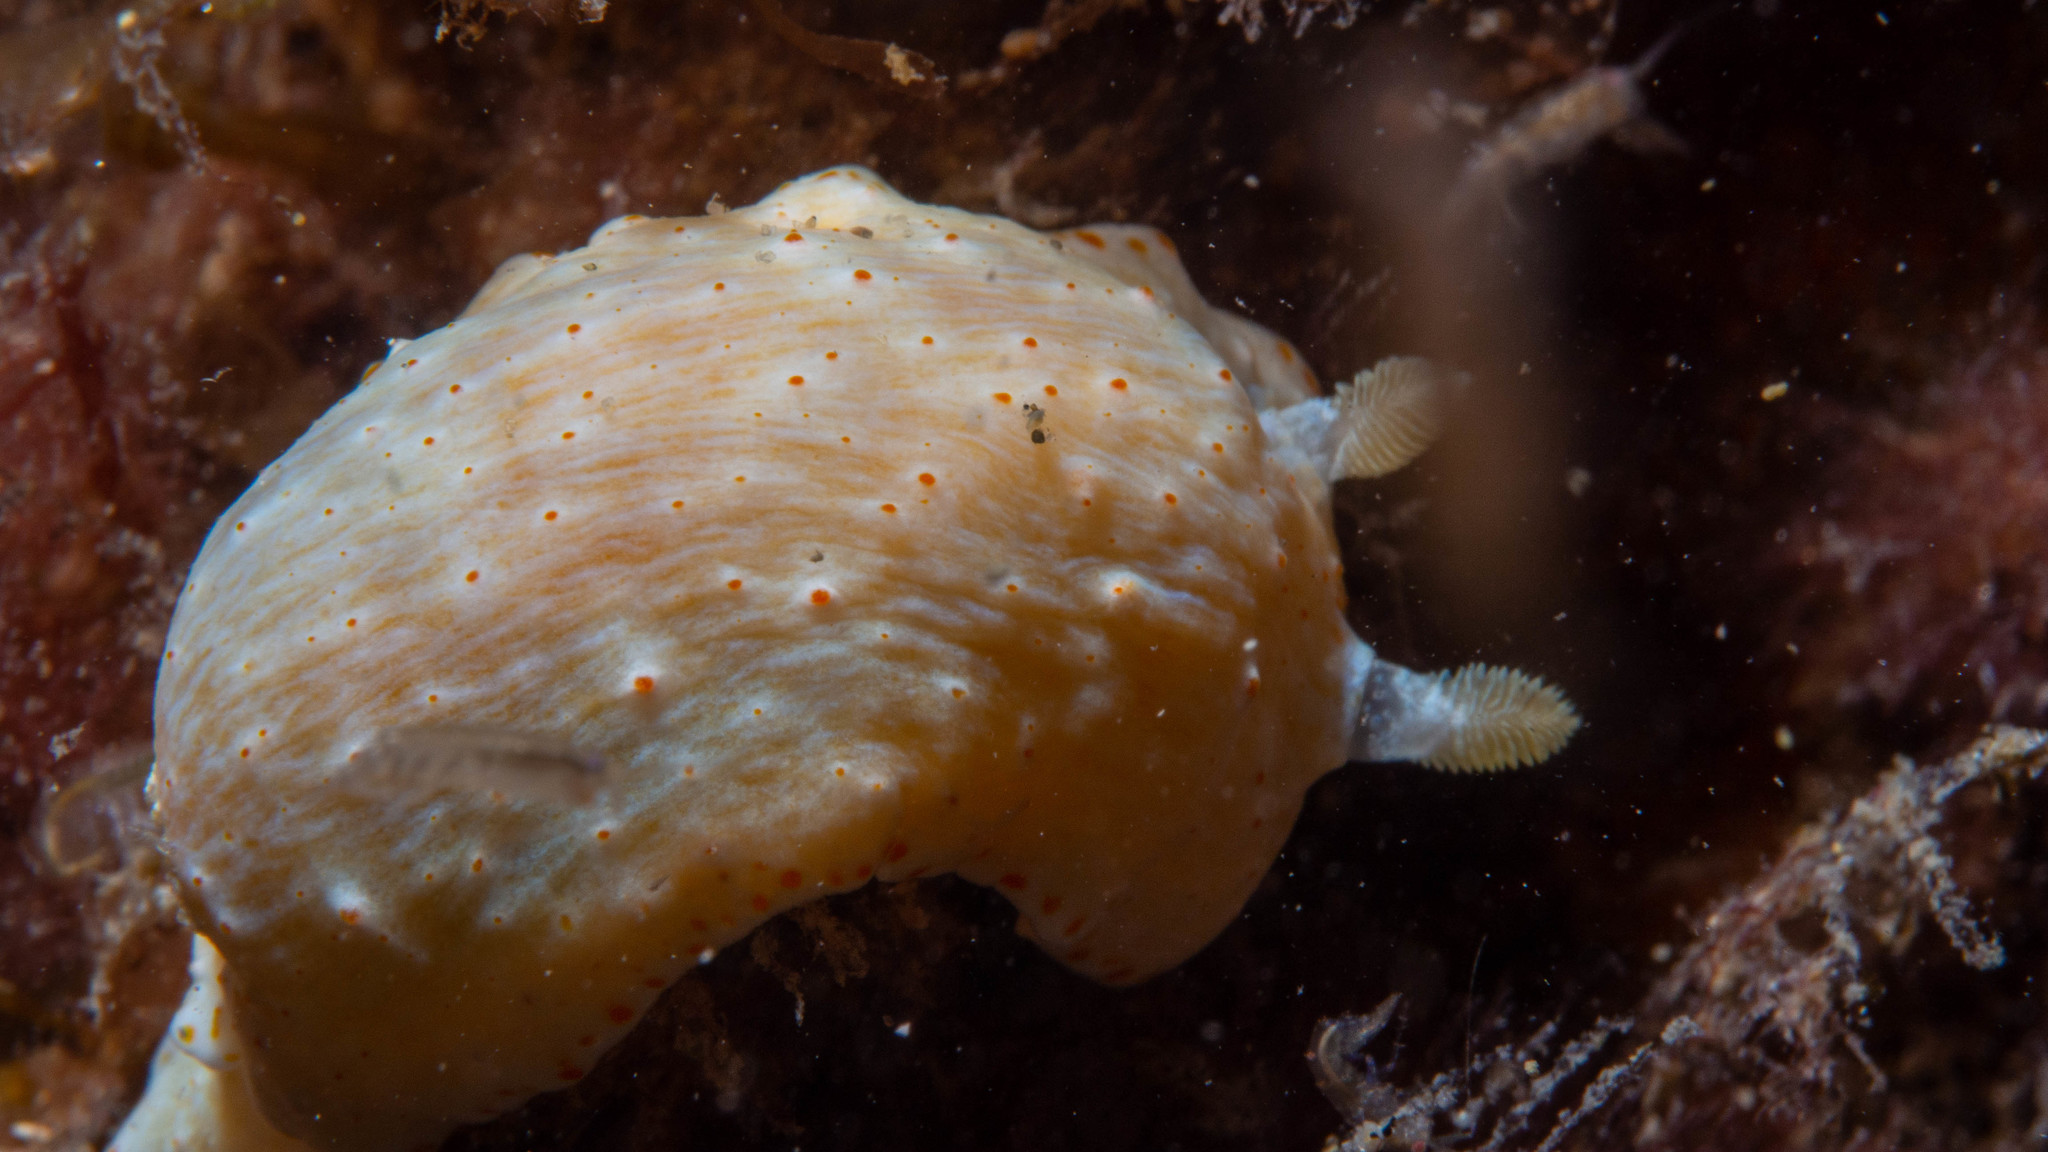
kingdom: Animalia
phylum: Mollusca
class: Gastropoda
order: Nudibranchia
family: Chromodorididae
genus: Goniobranchus
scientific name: Goniobranchus epicurius
